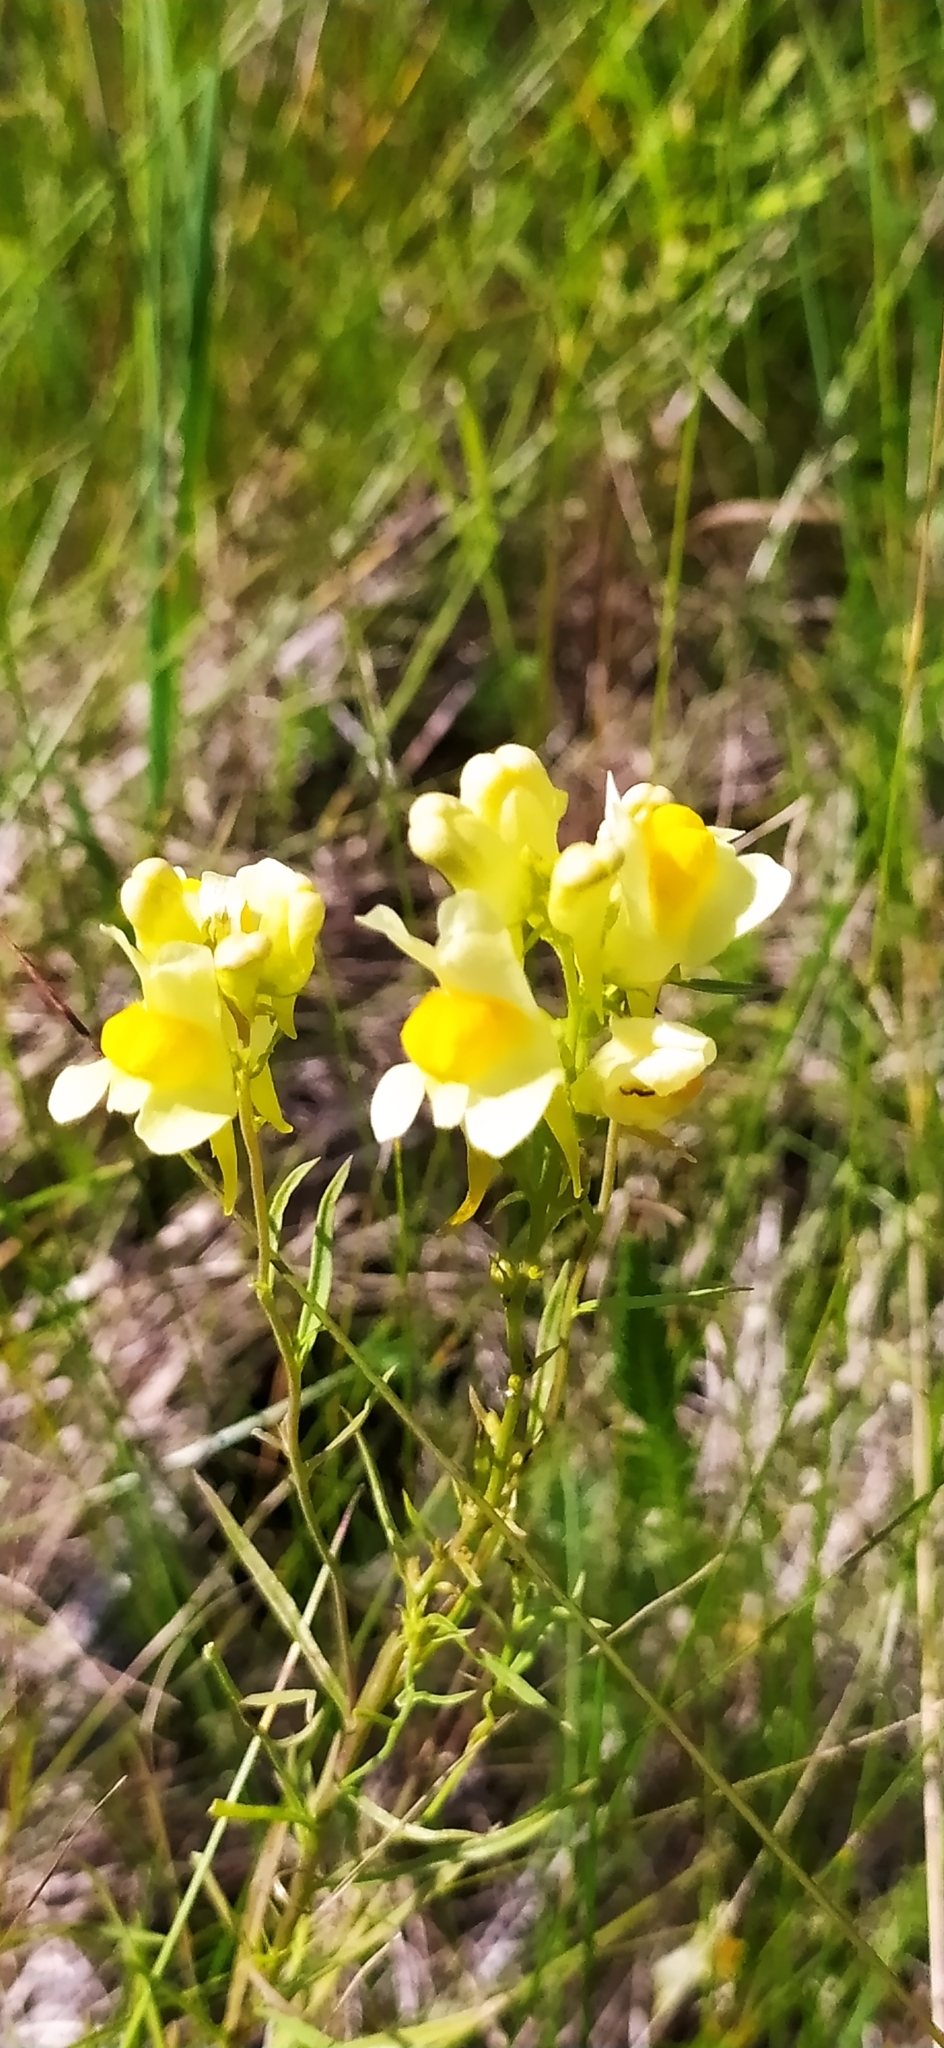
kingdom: Plantae
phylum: Tracheophyta
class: Magnoliopsida
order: Lamiales
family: Plantaginaceae
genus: Linaria
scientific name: Linaria vulgaris
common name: Butter and eggs
